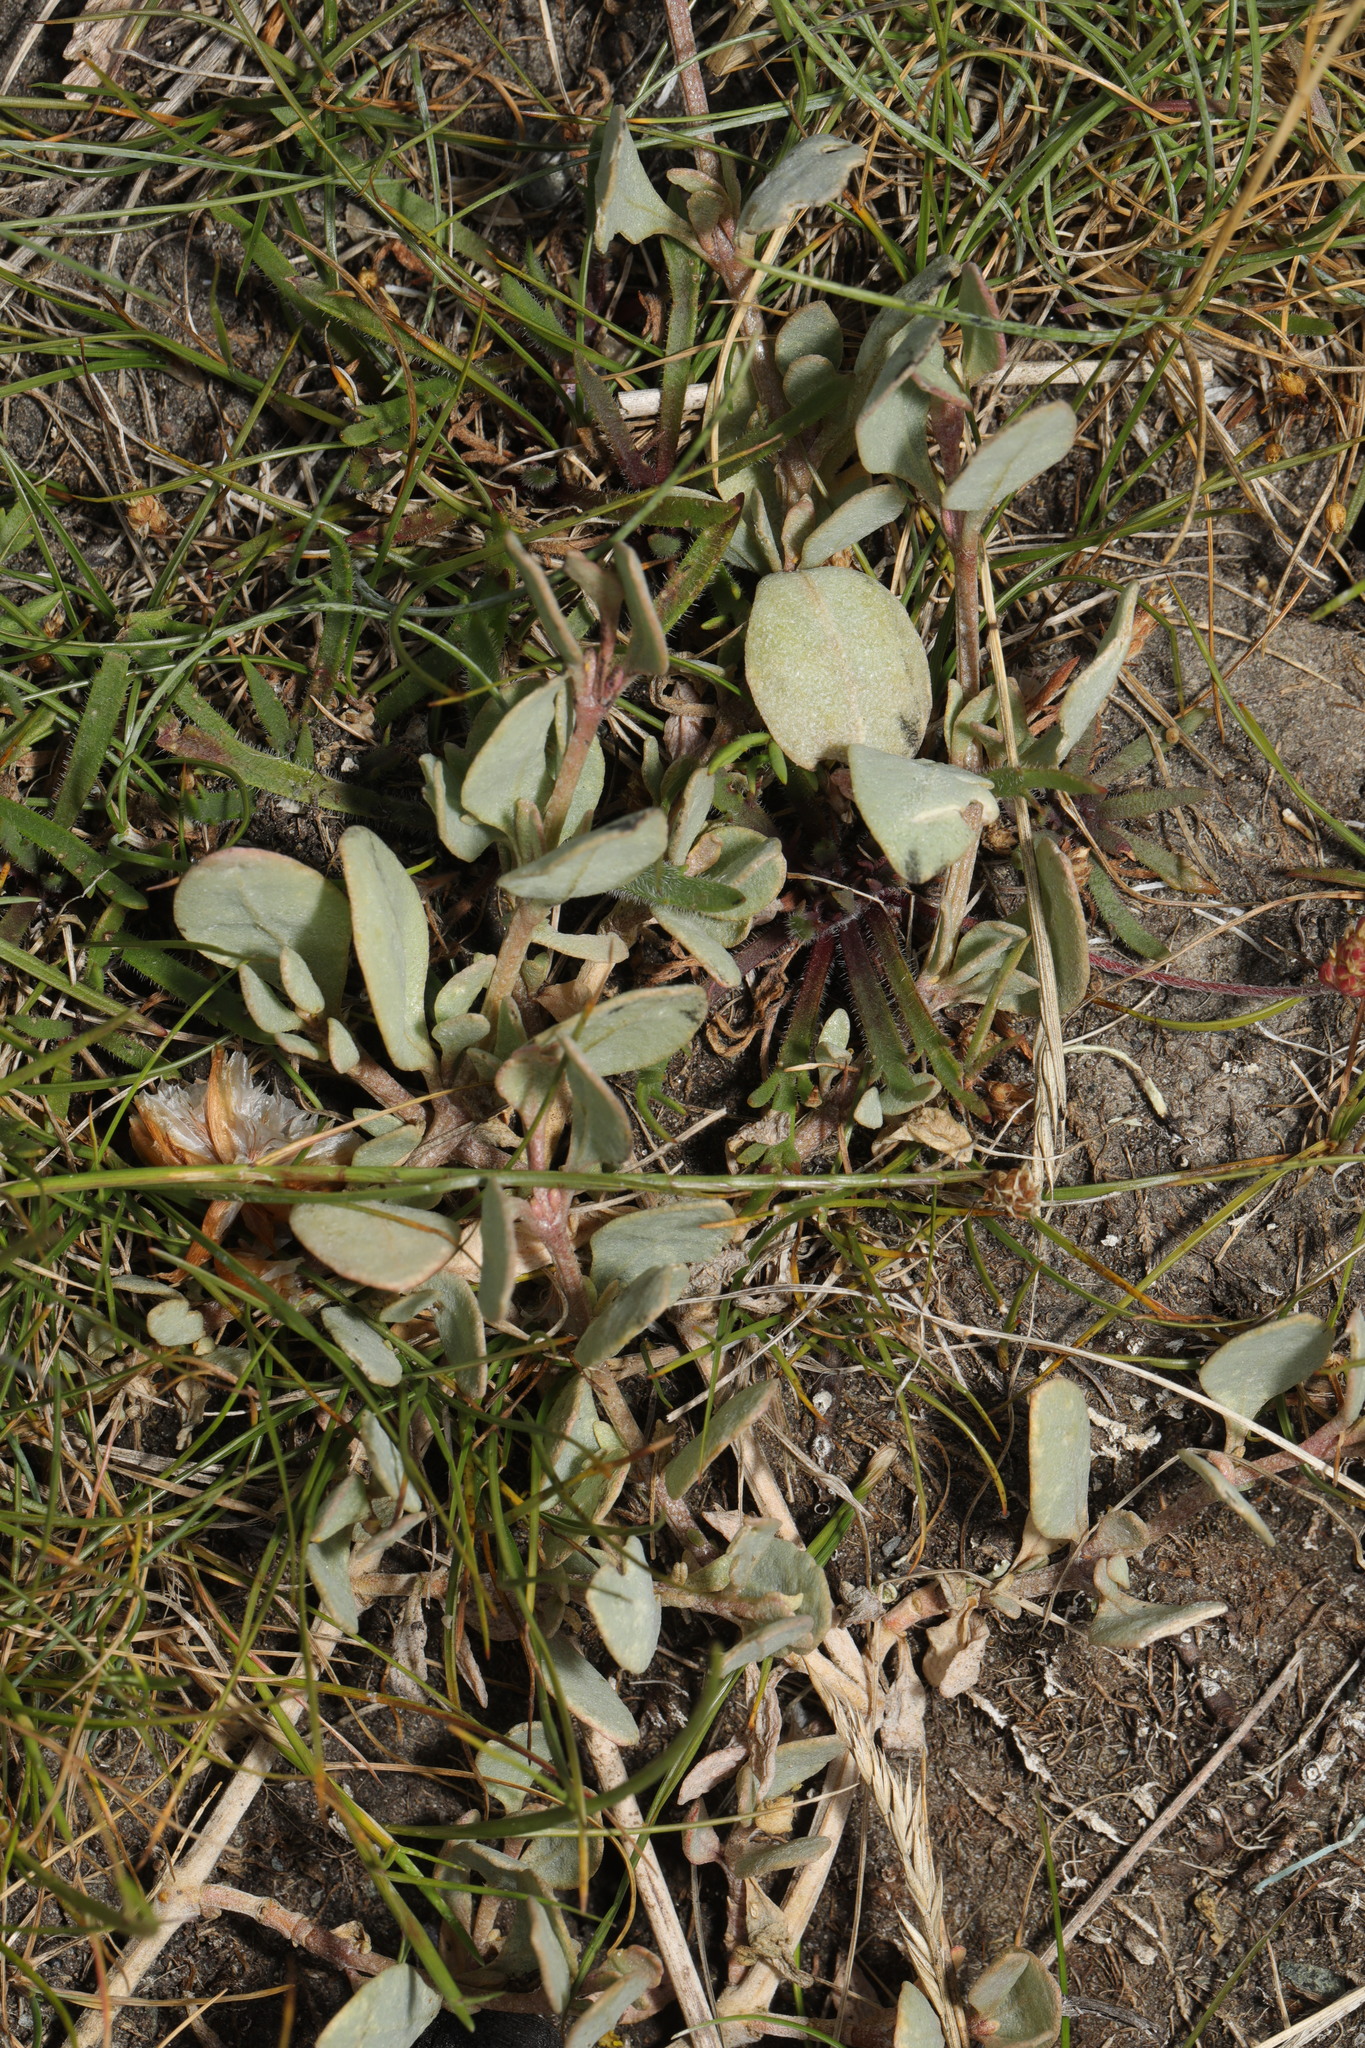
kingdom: Plantae
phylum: Tracheophyta
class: Magnoliopsida
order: Caryophyllales
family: Amaranthaceae
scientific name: Amaranthaceae
